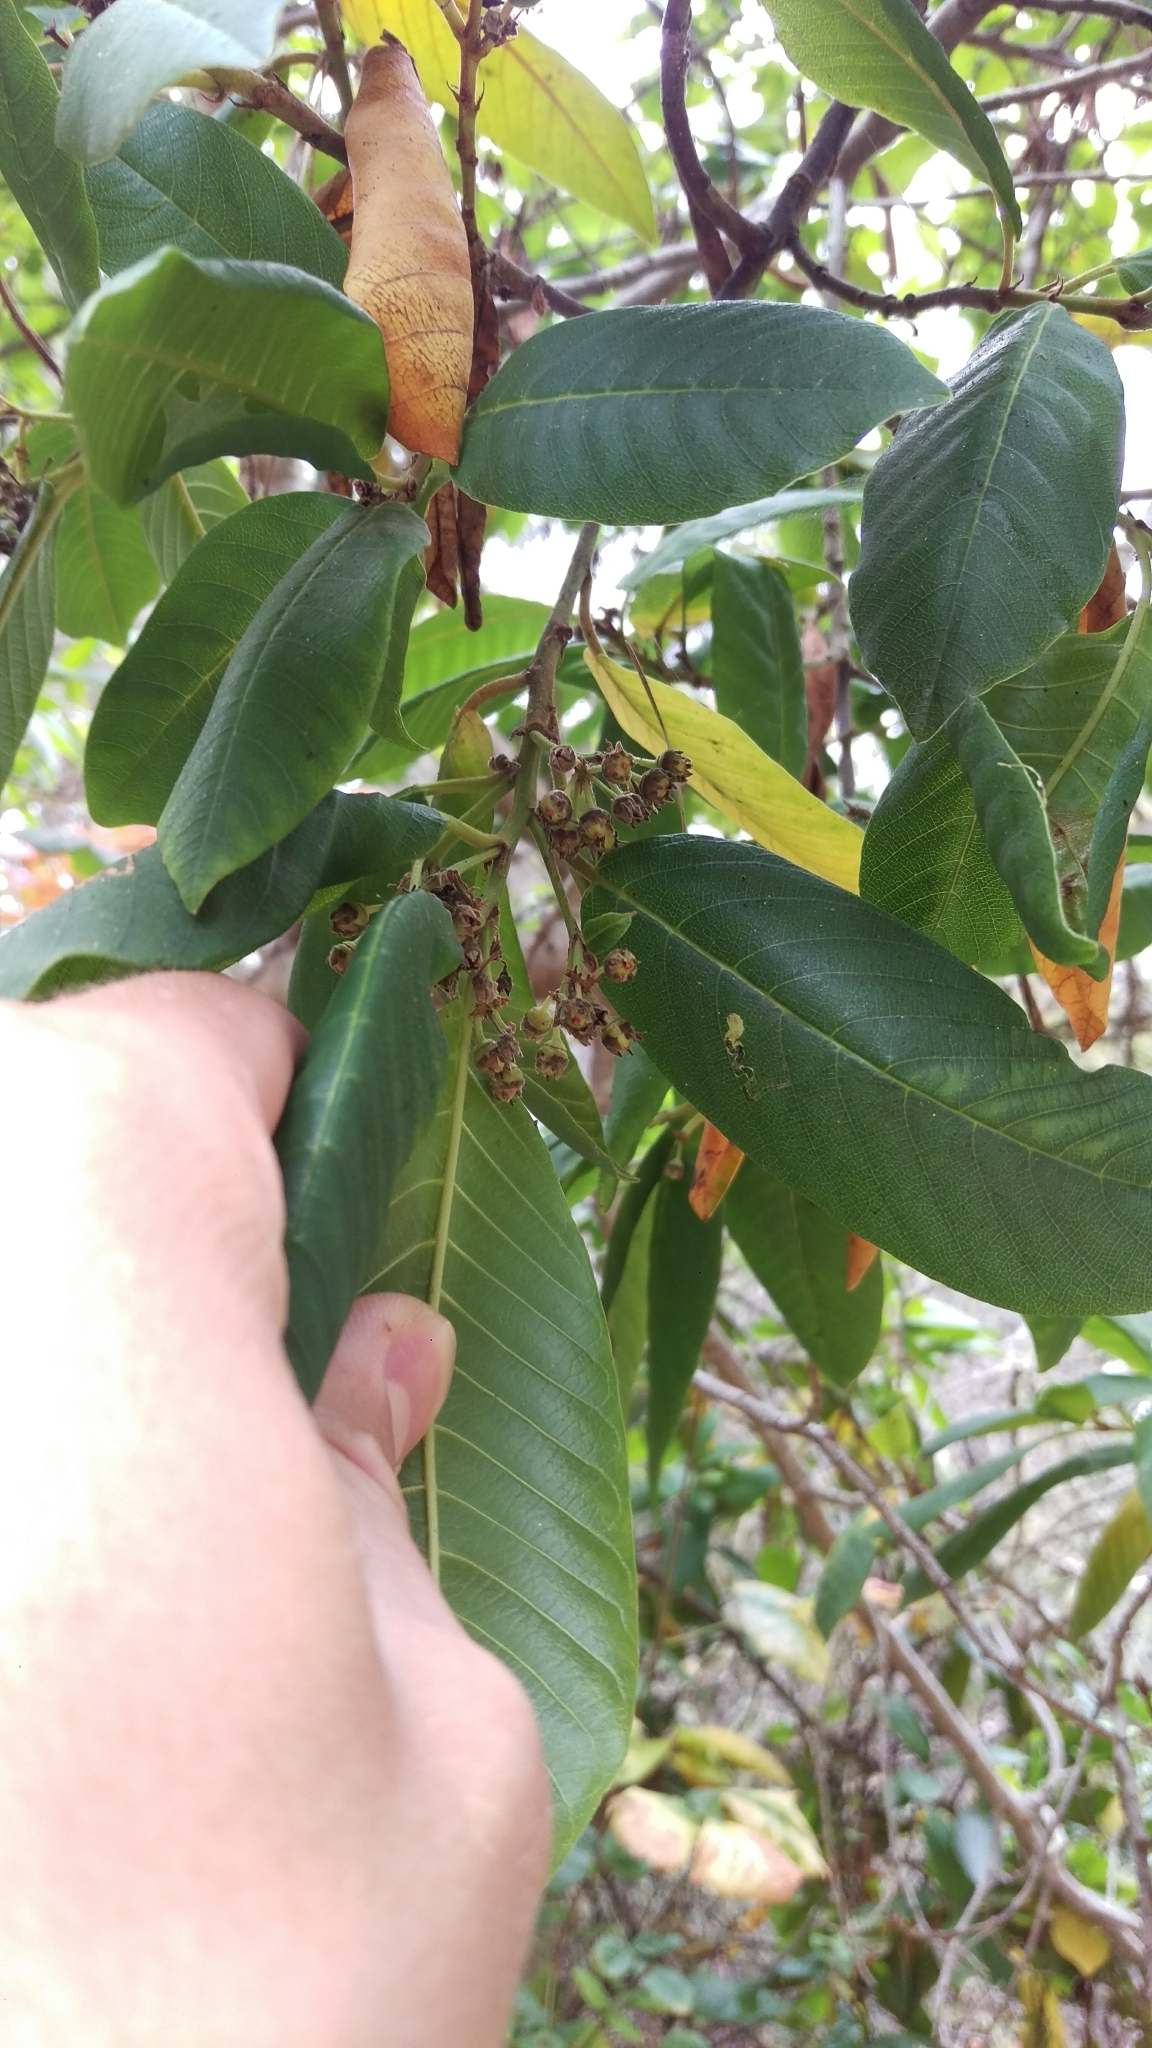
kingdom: Plantae
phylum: Tracheophyta
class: Magnoliopsida
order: Rosales
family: Rhamnaceae
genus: Frangula
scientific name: Frangula californica
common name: California buckthorn
